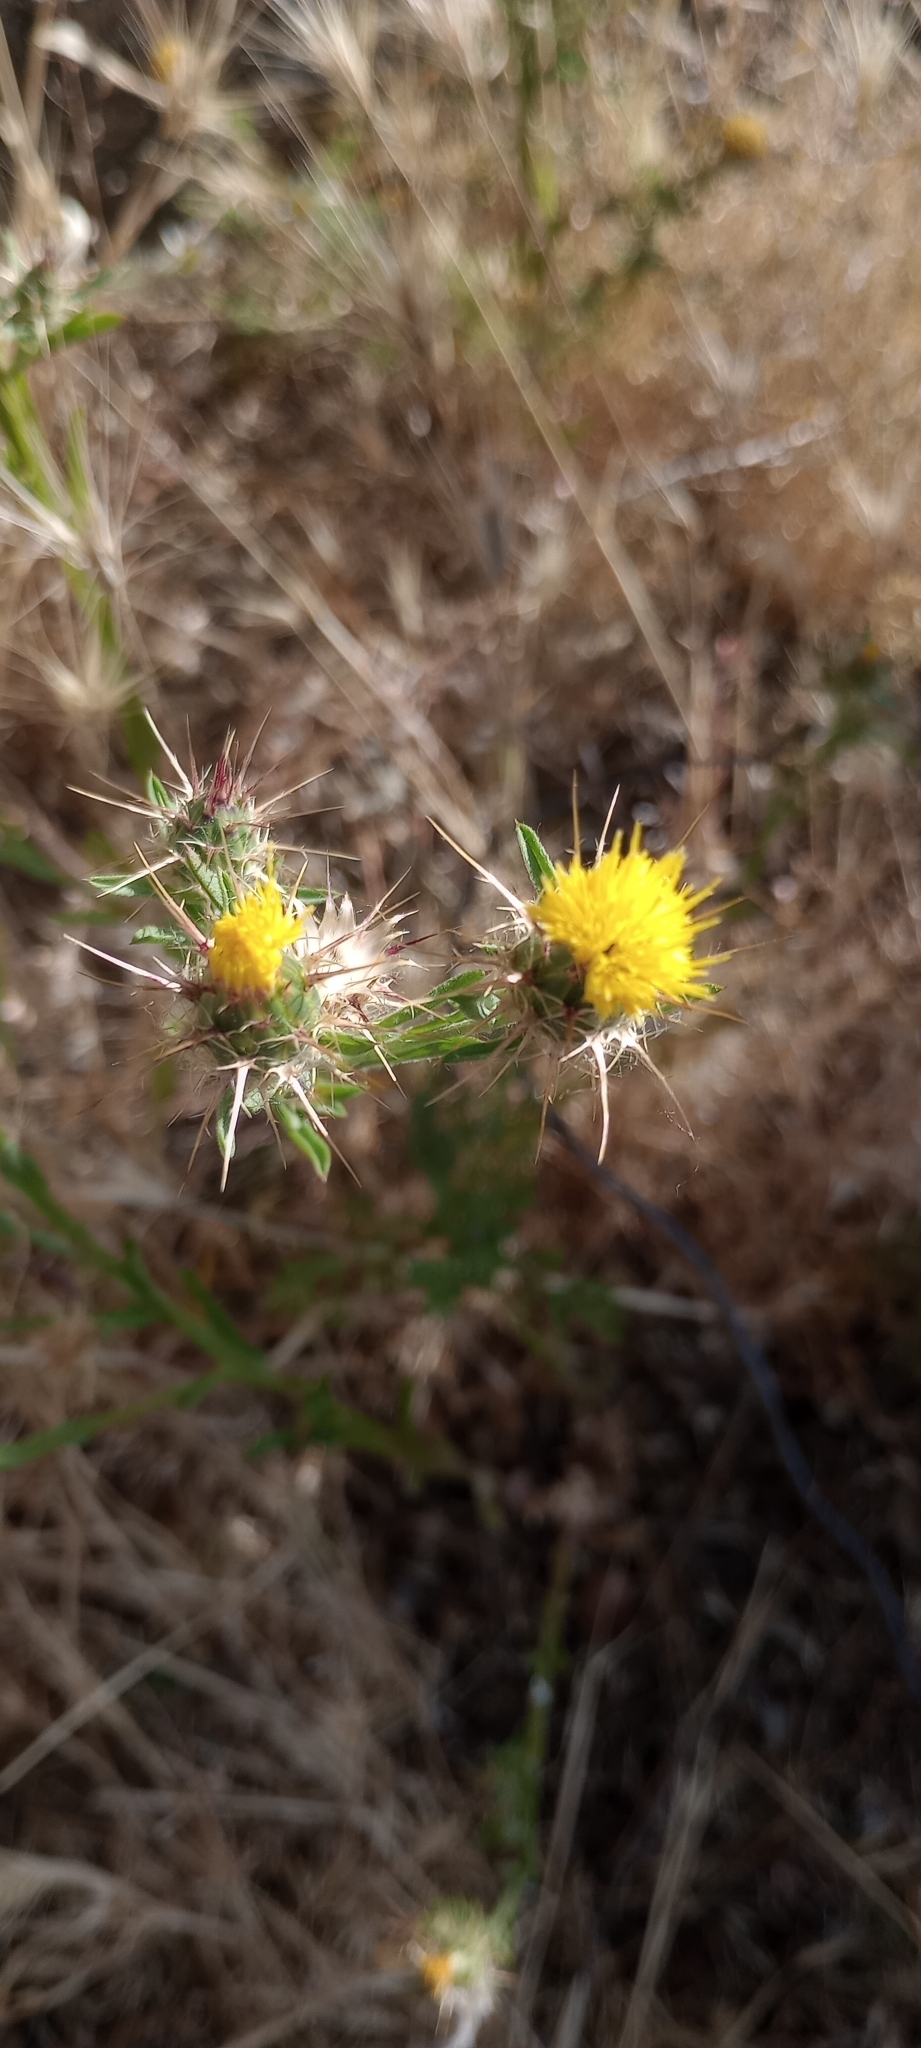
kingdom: Plantae
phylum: Tracheophyta
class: Magnoliopsida
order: Asterales
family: Asteraceae
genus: Centaurea
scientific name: Centaurea melitensis
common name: Maltese star-thistle
